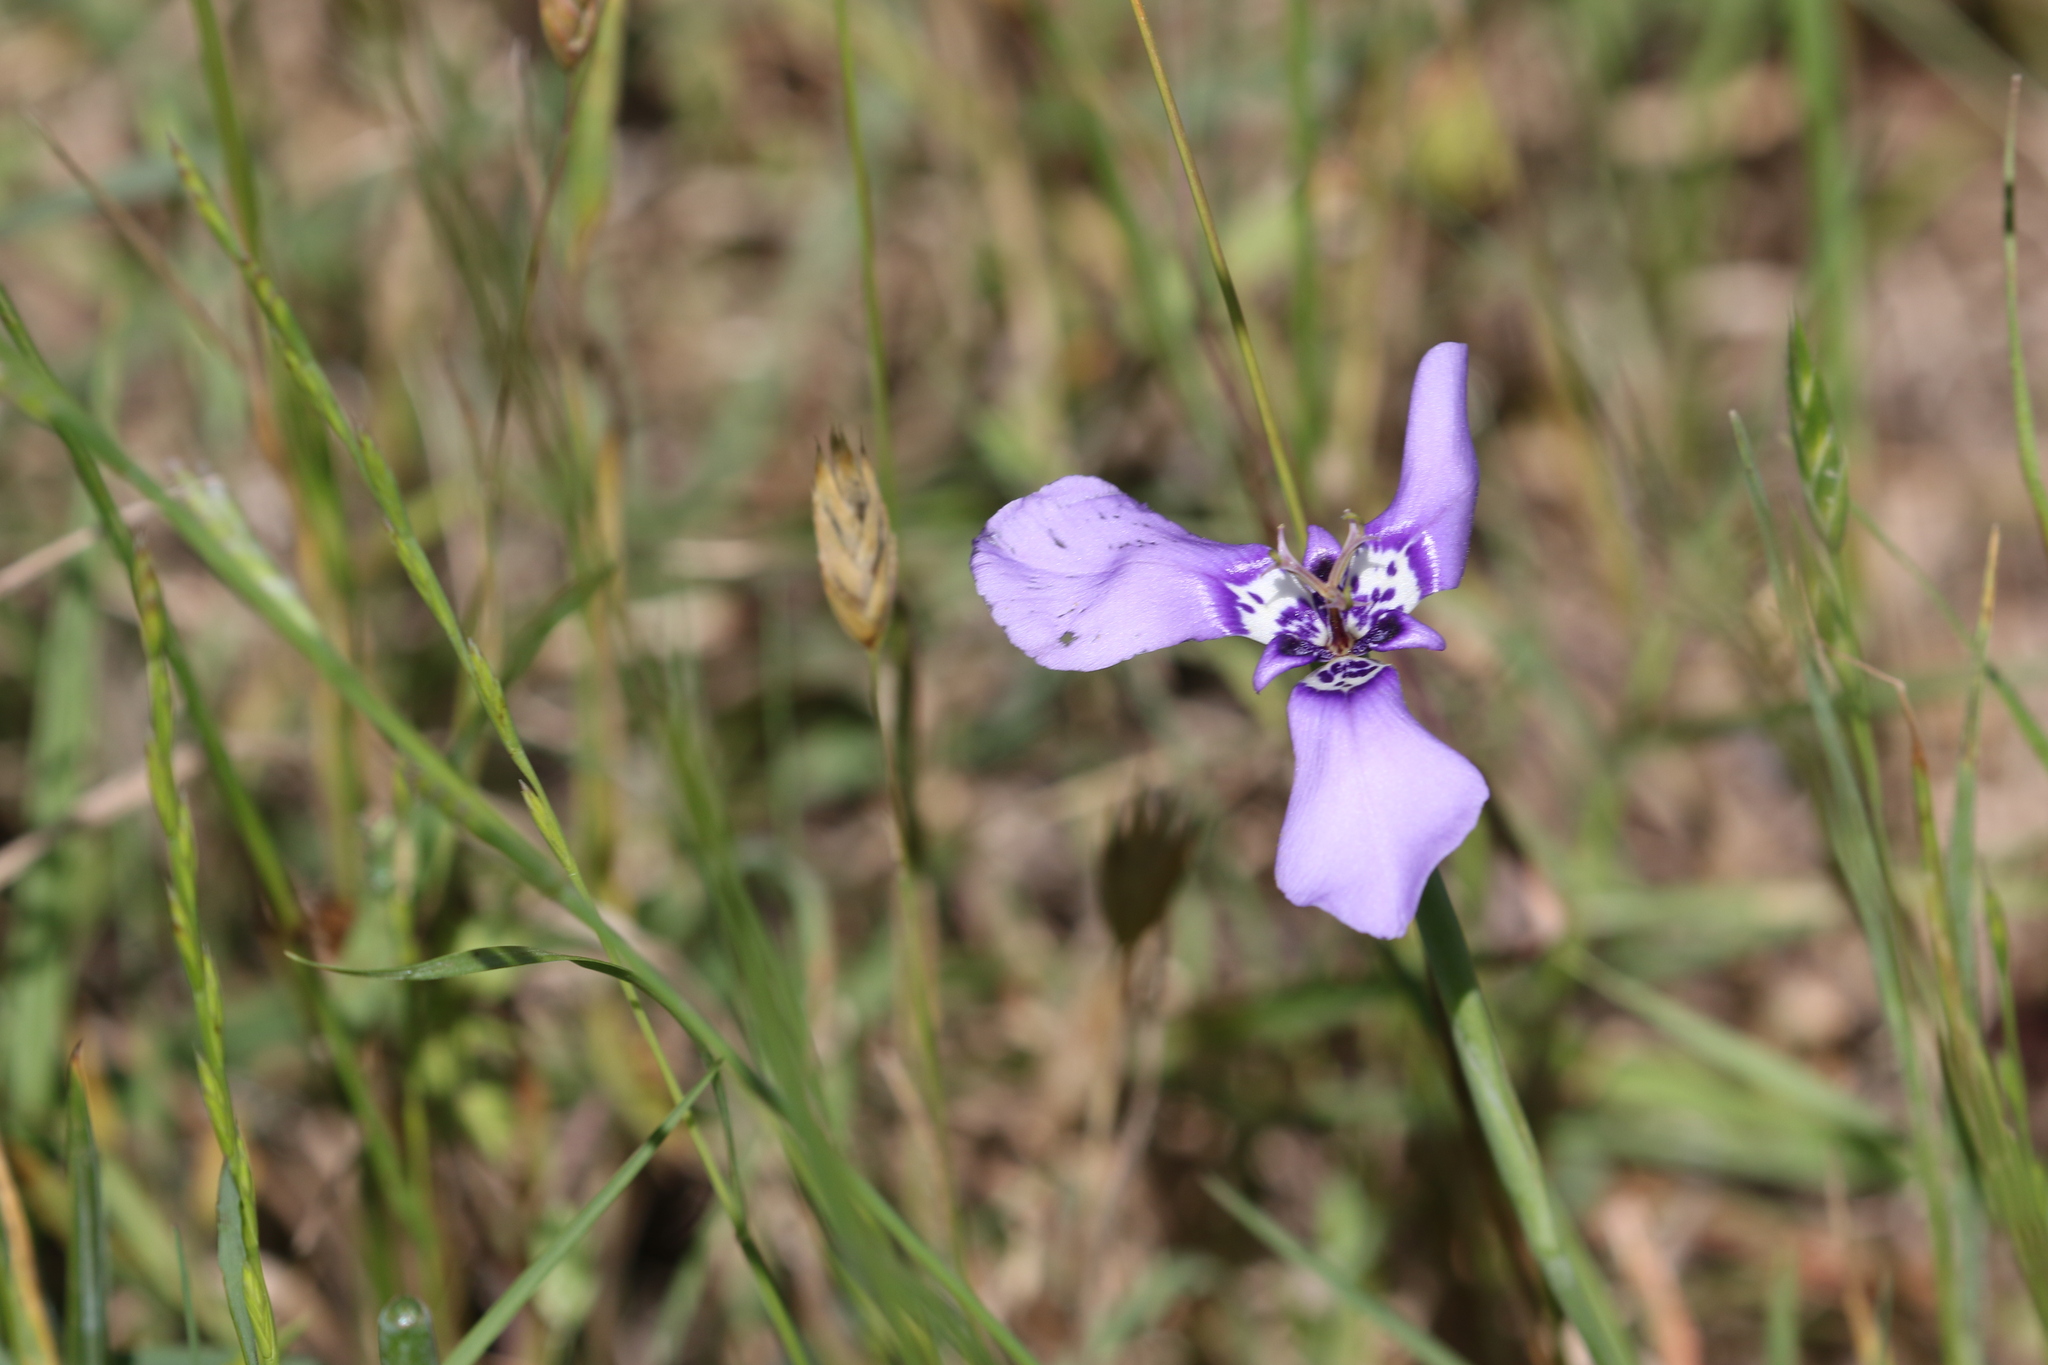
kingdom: Plantae
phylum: Tracheophyta
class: Liliopsida
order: Asparagales
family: Iridaceae
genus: Herbertia
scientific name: Herbertia lahue
